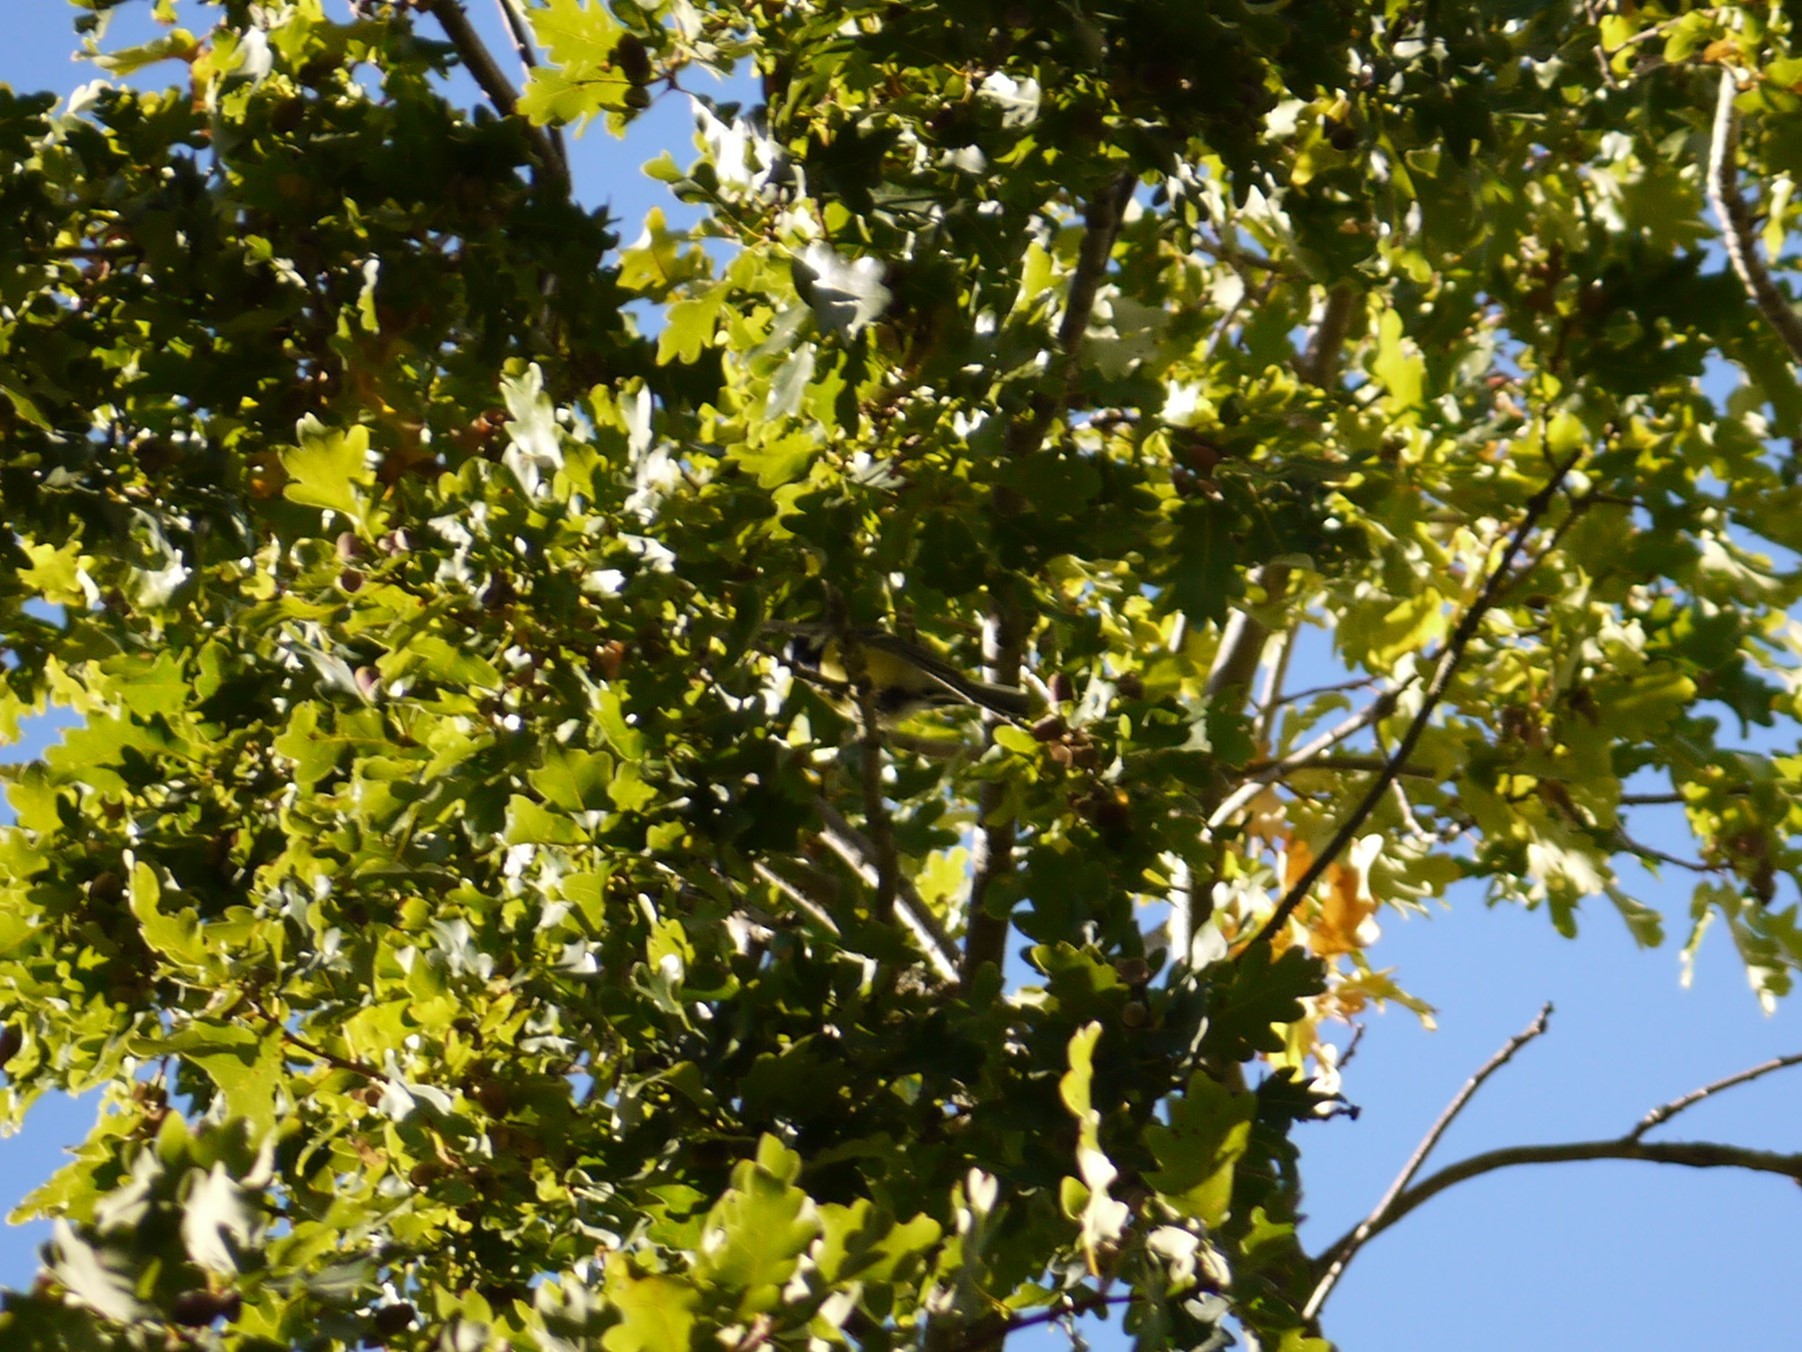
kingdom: Animalia
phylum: Chordata
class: Aves
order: Passeriformes
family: Paridae
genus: Parus
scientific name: Parus major
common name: Great tit
